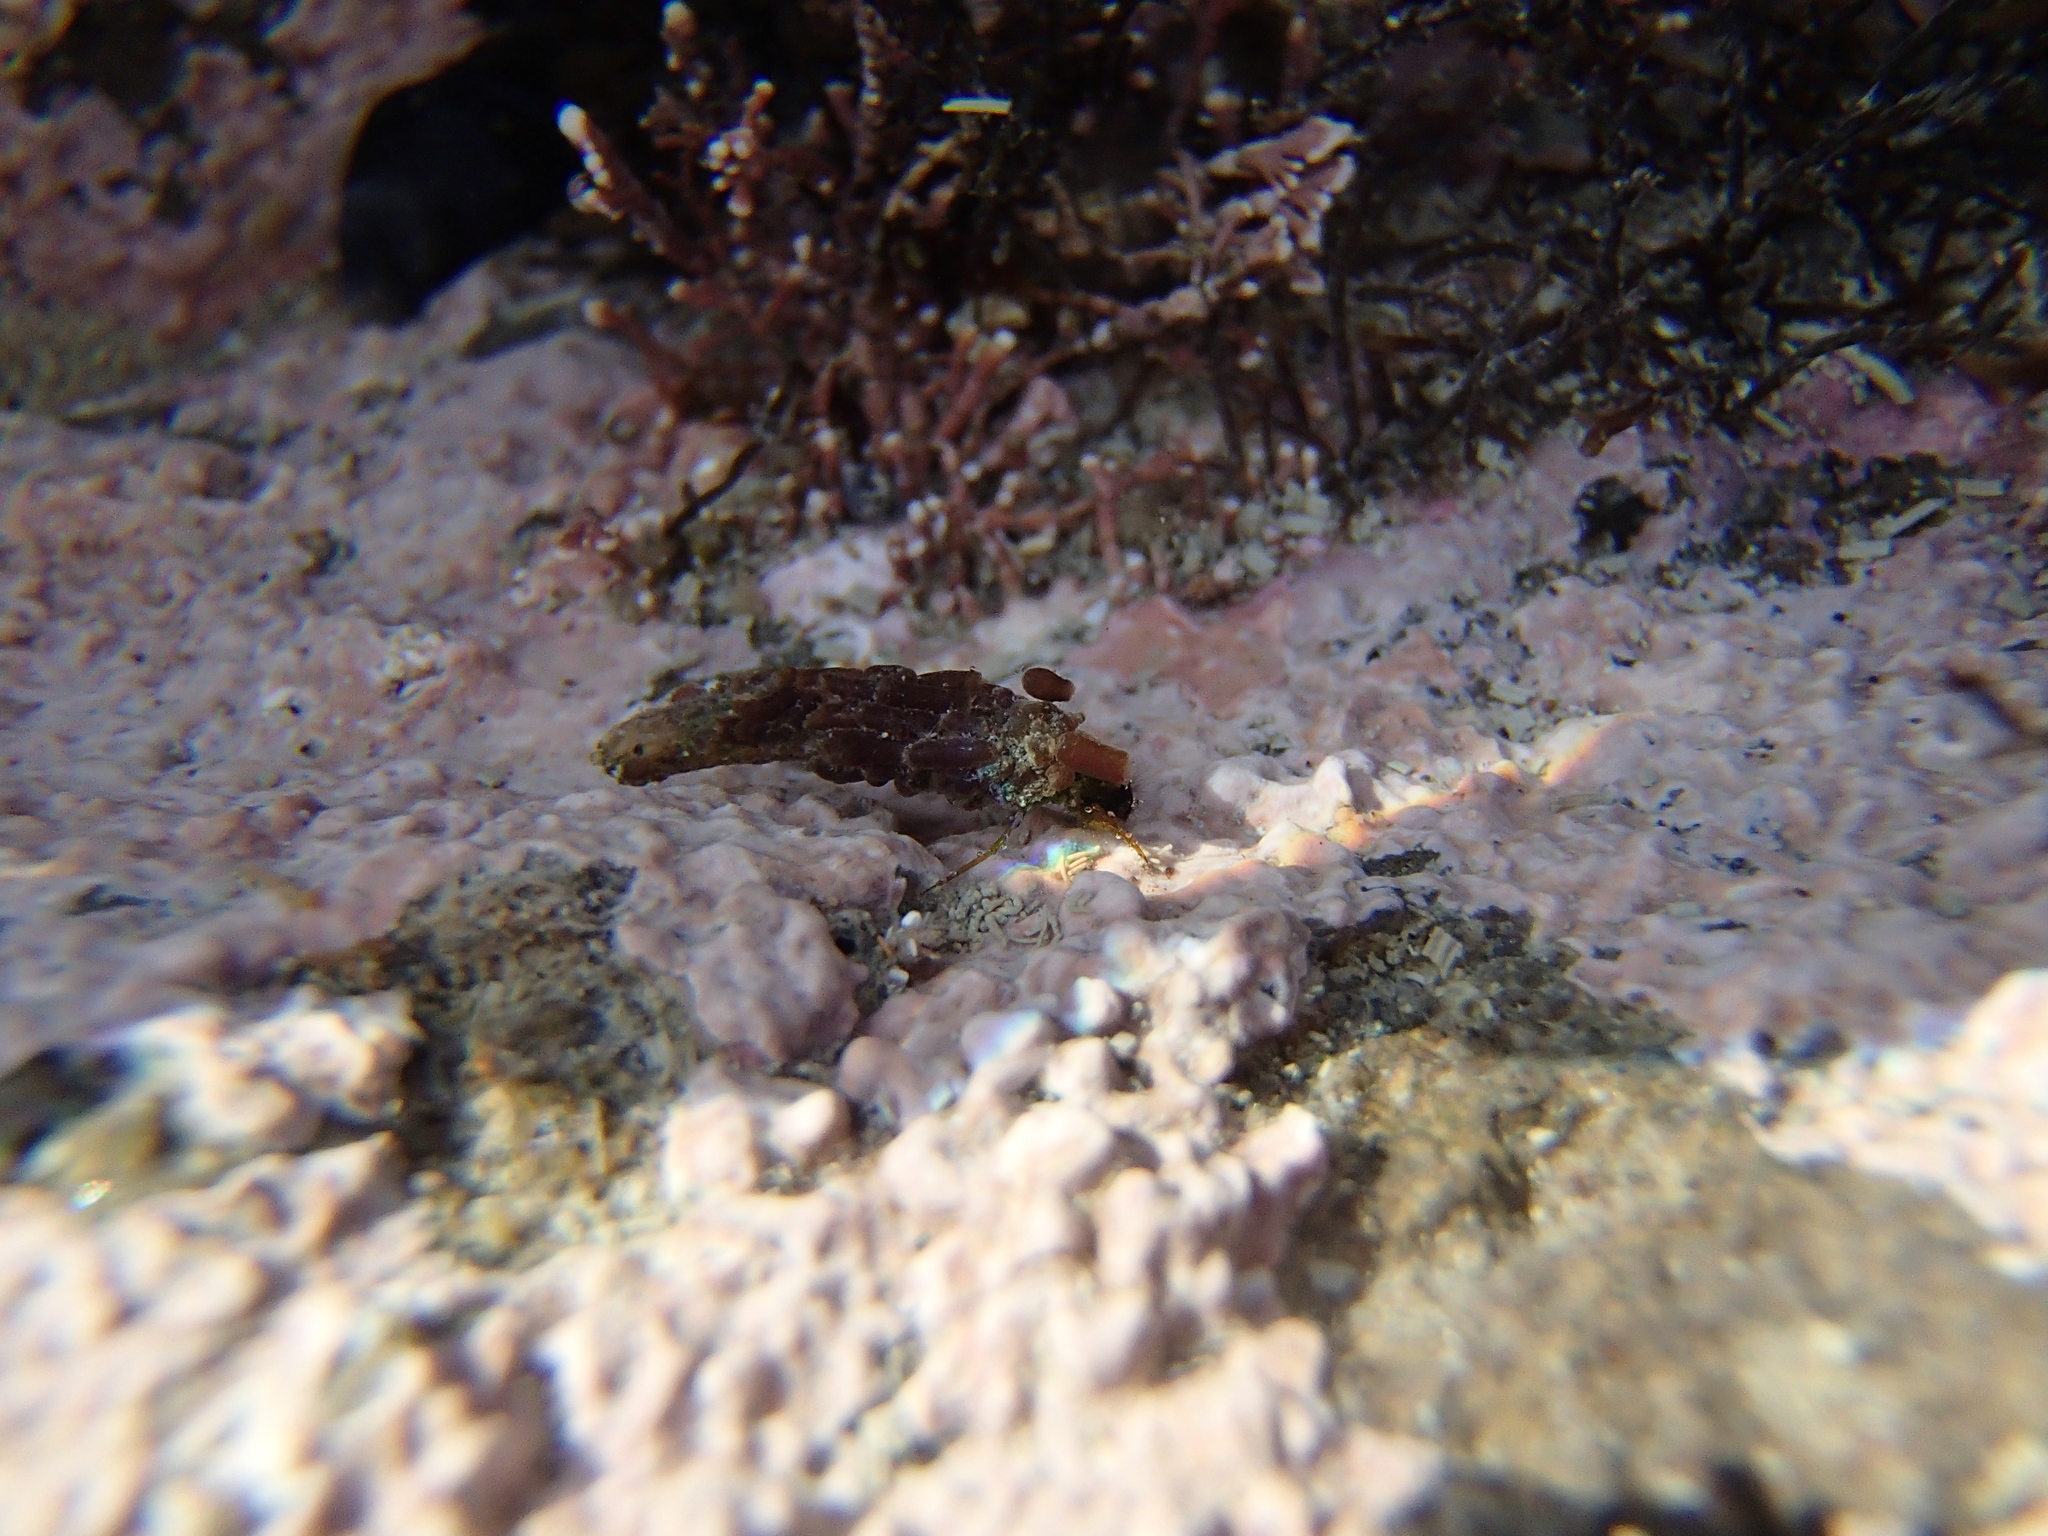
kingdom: Animalia
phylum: Arthropoda
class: Insecta
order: Trichoptera
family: Chathamiidae
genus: Philanisus
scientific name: Philanisus plebeius
